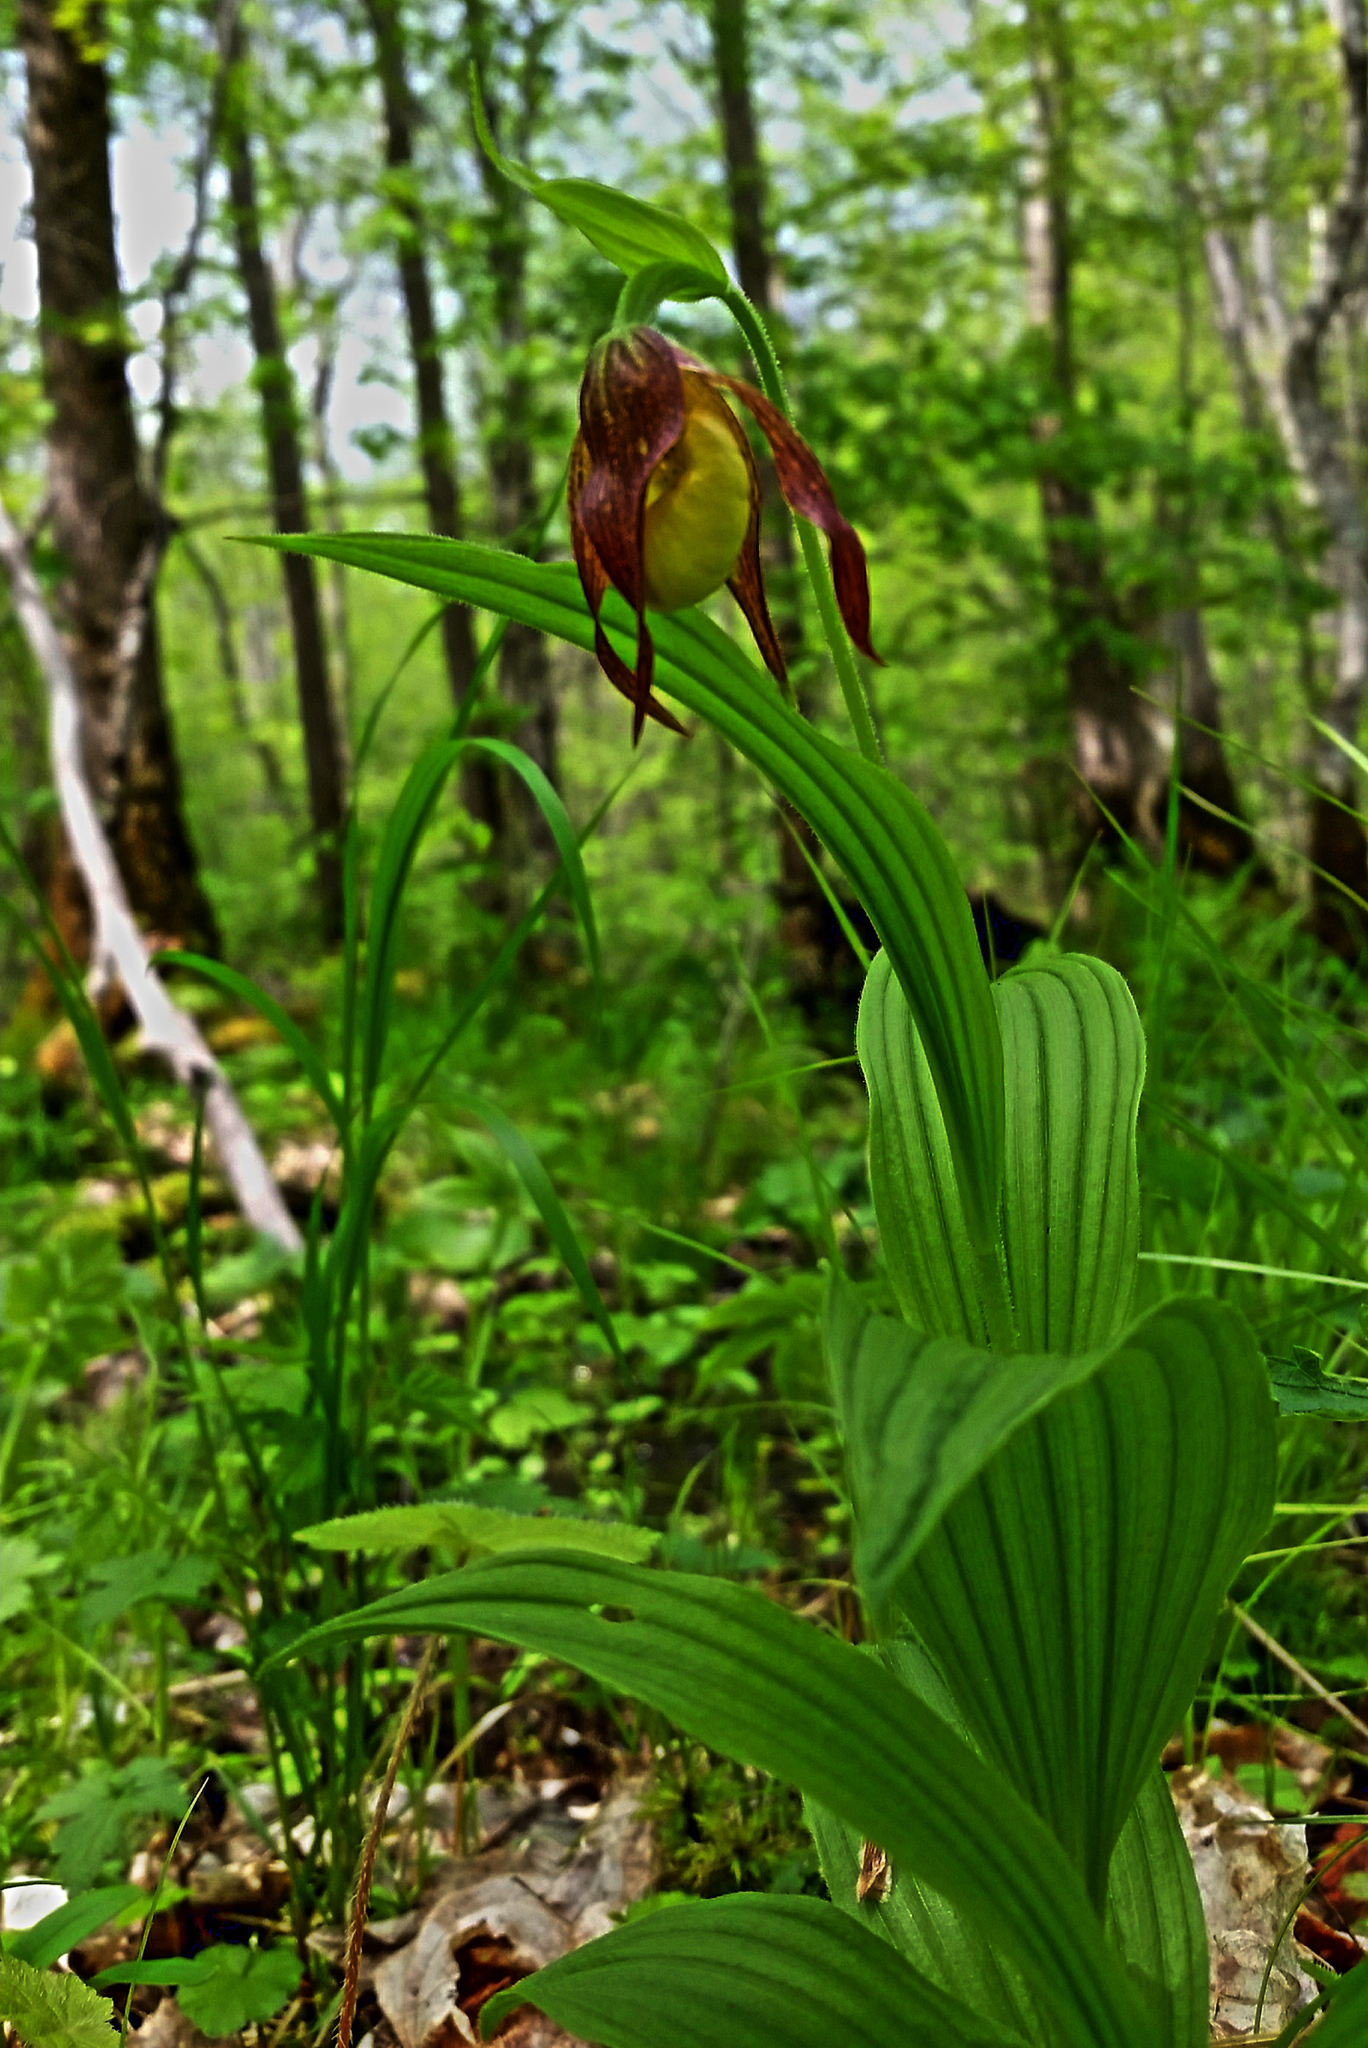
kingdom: Plantae
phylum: Tracheophyta
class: Liliopsida
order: Asparagales
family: Orchidaceae
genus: Cypripedium
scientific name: Cypripedium parviflorum
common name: American yellow lady's-slipper
